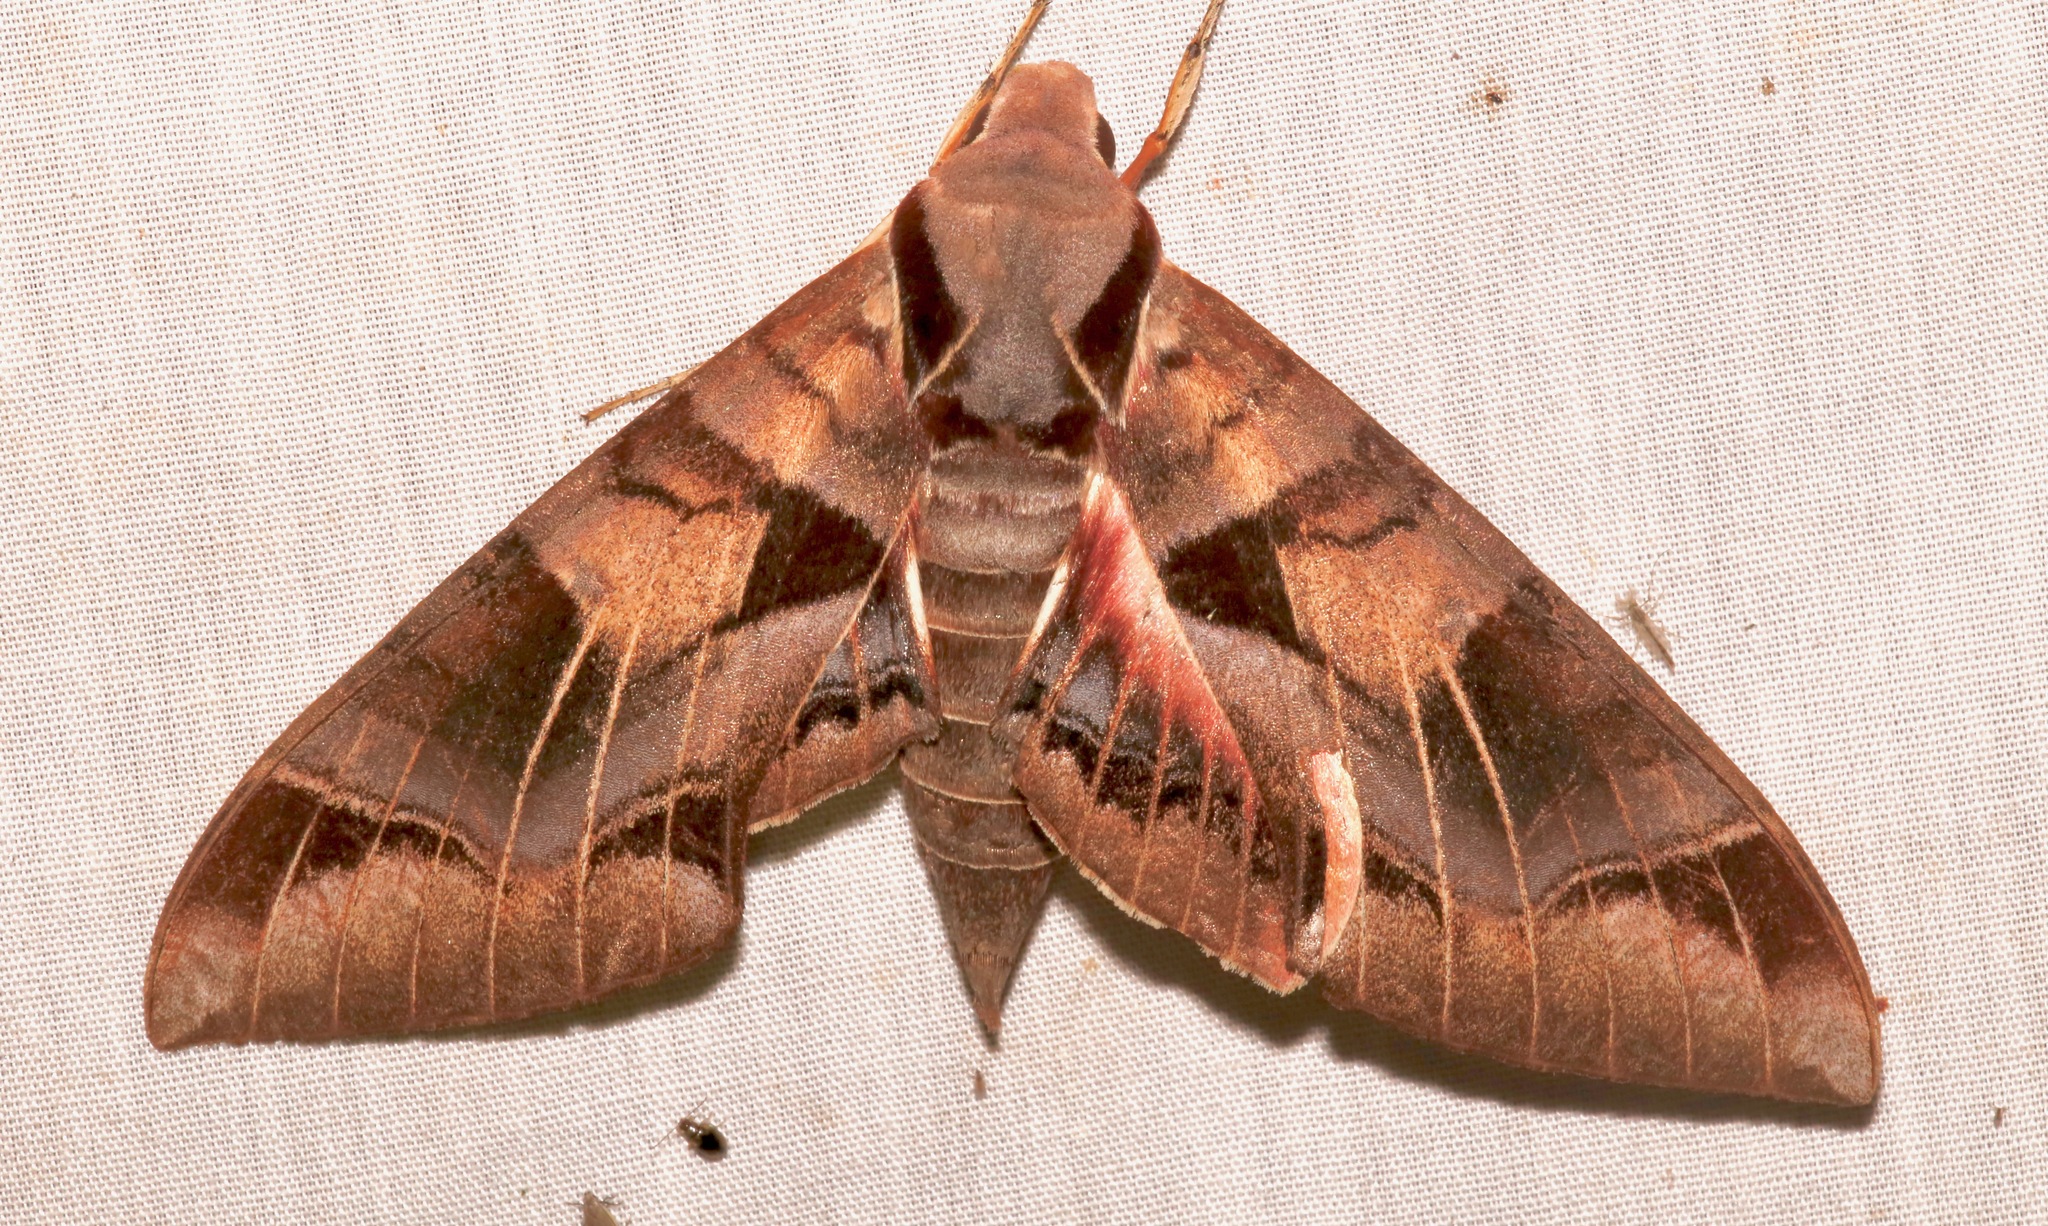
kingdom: Animalia
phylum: Arthropoda
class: Insecta
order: Lepidoptera
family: Sphingidae
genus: Eumorpha
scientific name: Eumorpha typhon
